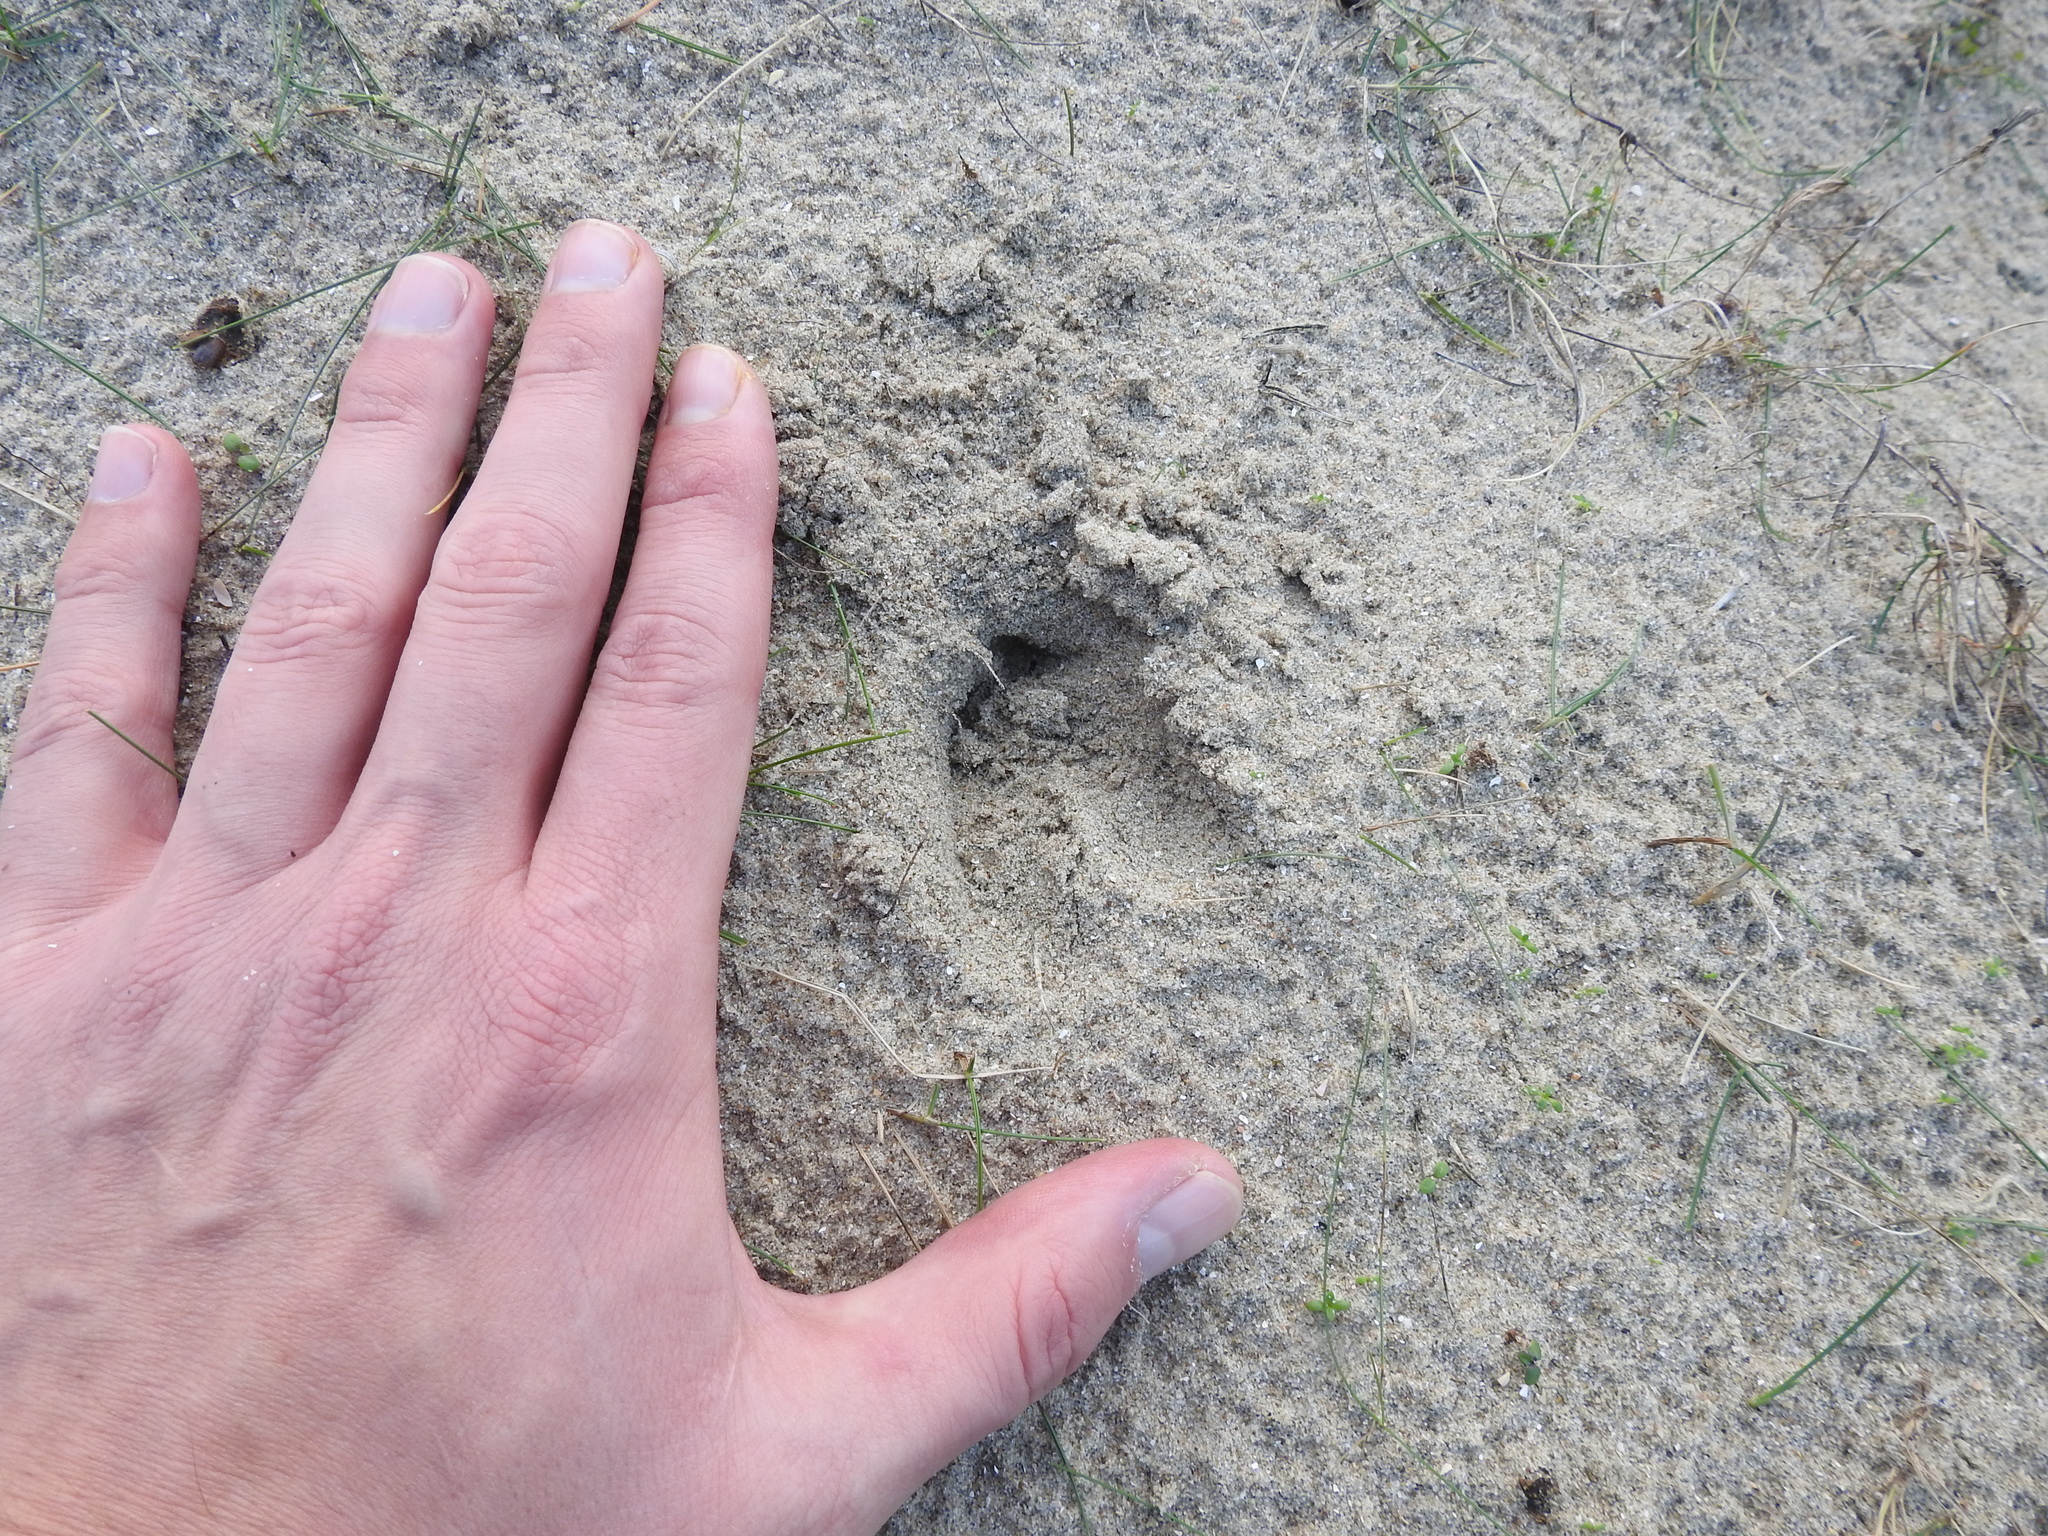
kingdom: Animalia
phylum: Chordata
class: Mammalia
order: Artiodactyla
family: Cervidae
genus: Capreolus
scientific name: Capreolus capreolus
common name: Western roe deer
